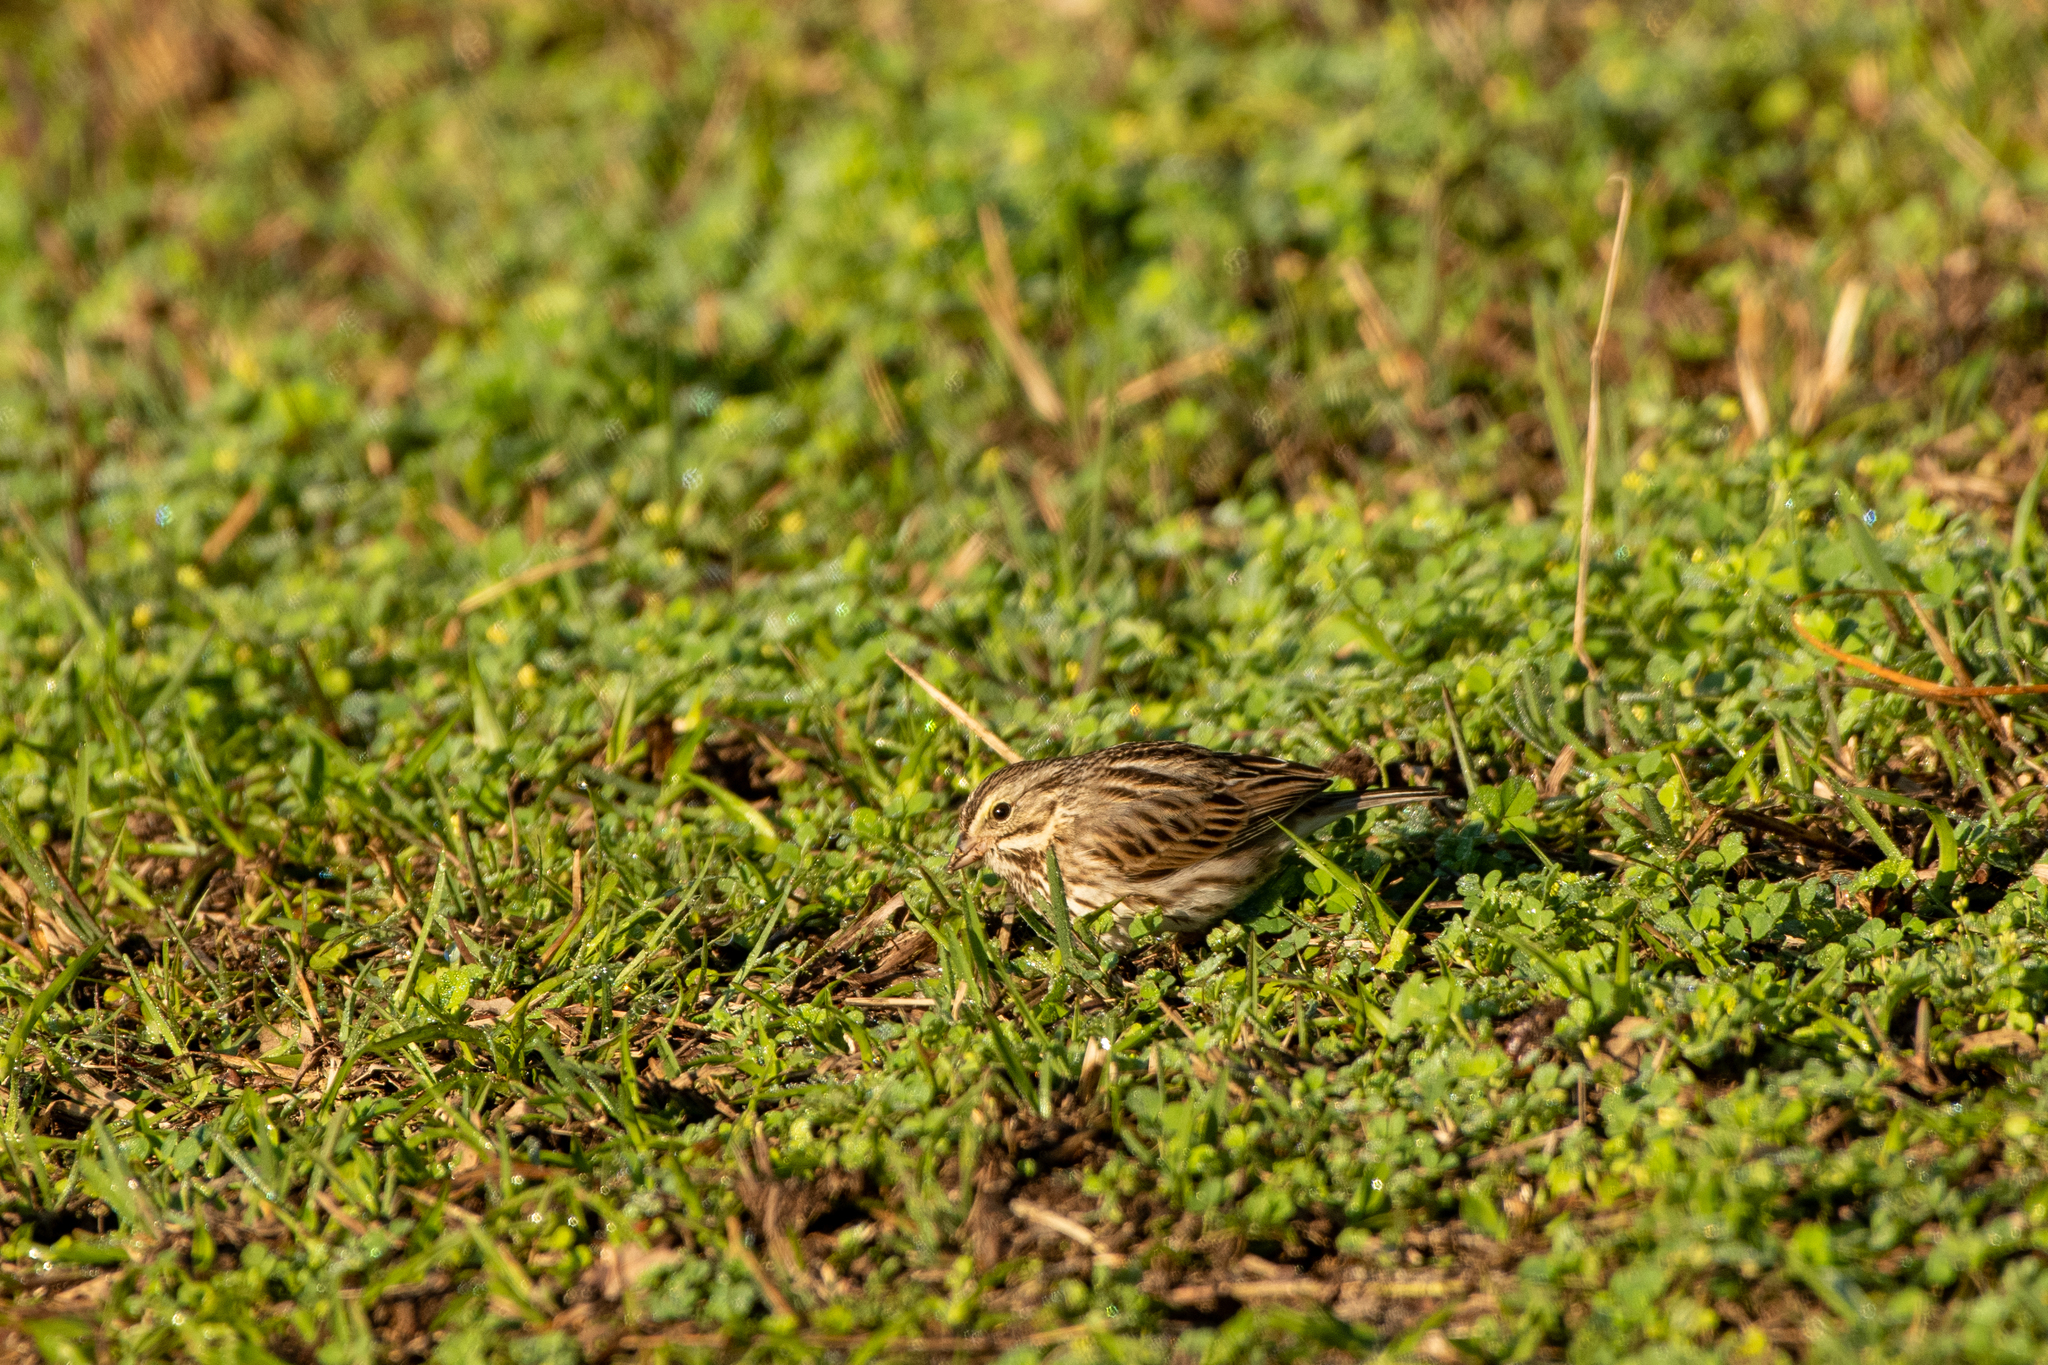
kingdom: Animalia
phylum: Chordata
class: Aves
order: Passeriformes
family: Passerellidae
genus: Passerculus
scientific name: Passerculus sandwichensis
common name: Savannah sparrow
